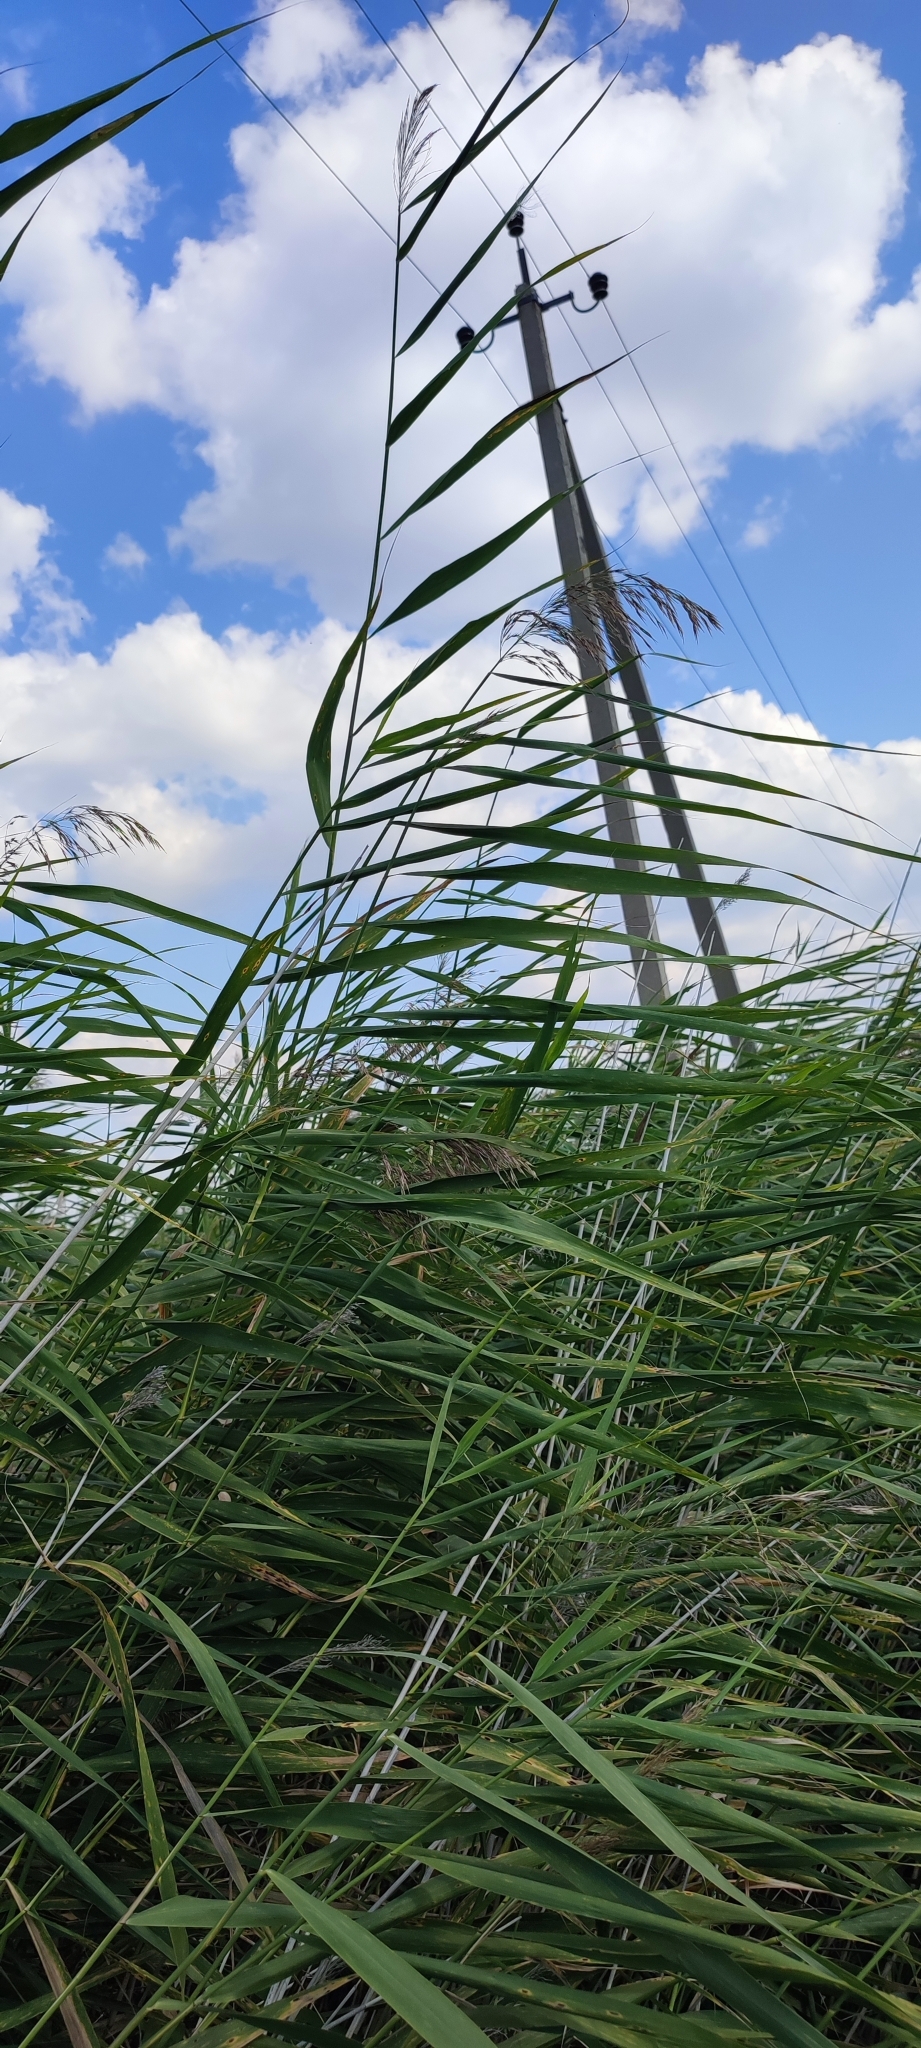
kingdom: Plantae
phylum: Tracheophyta
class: Liliopsida
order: Poales
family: Poaceae
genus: Phragmites
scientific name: Phragmites australis
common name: Common reed
